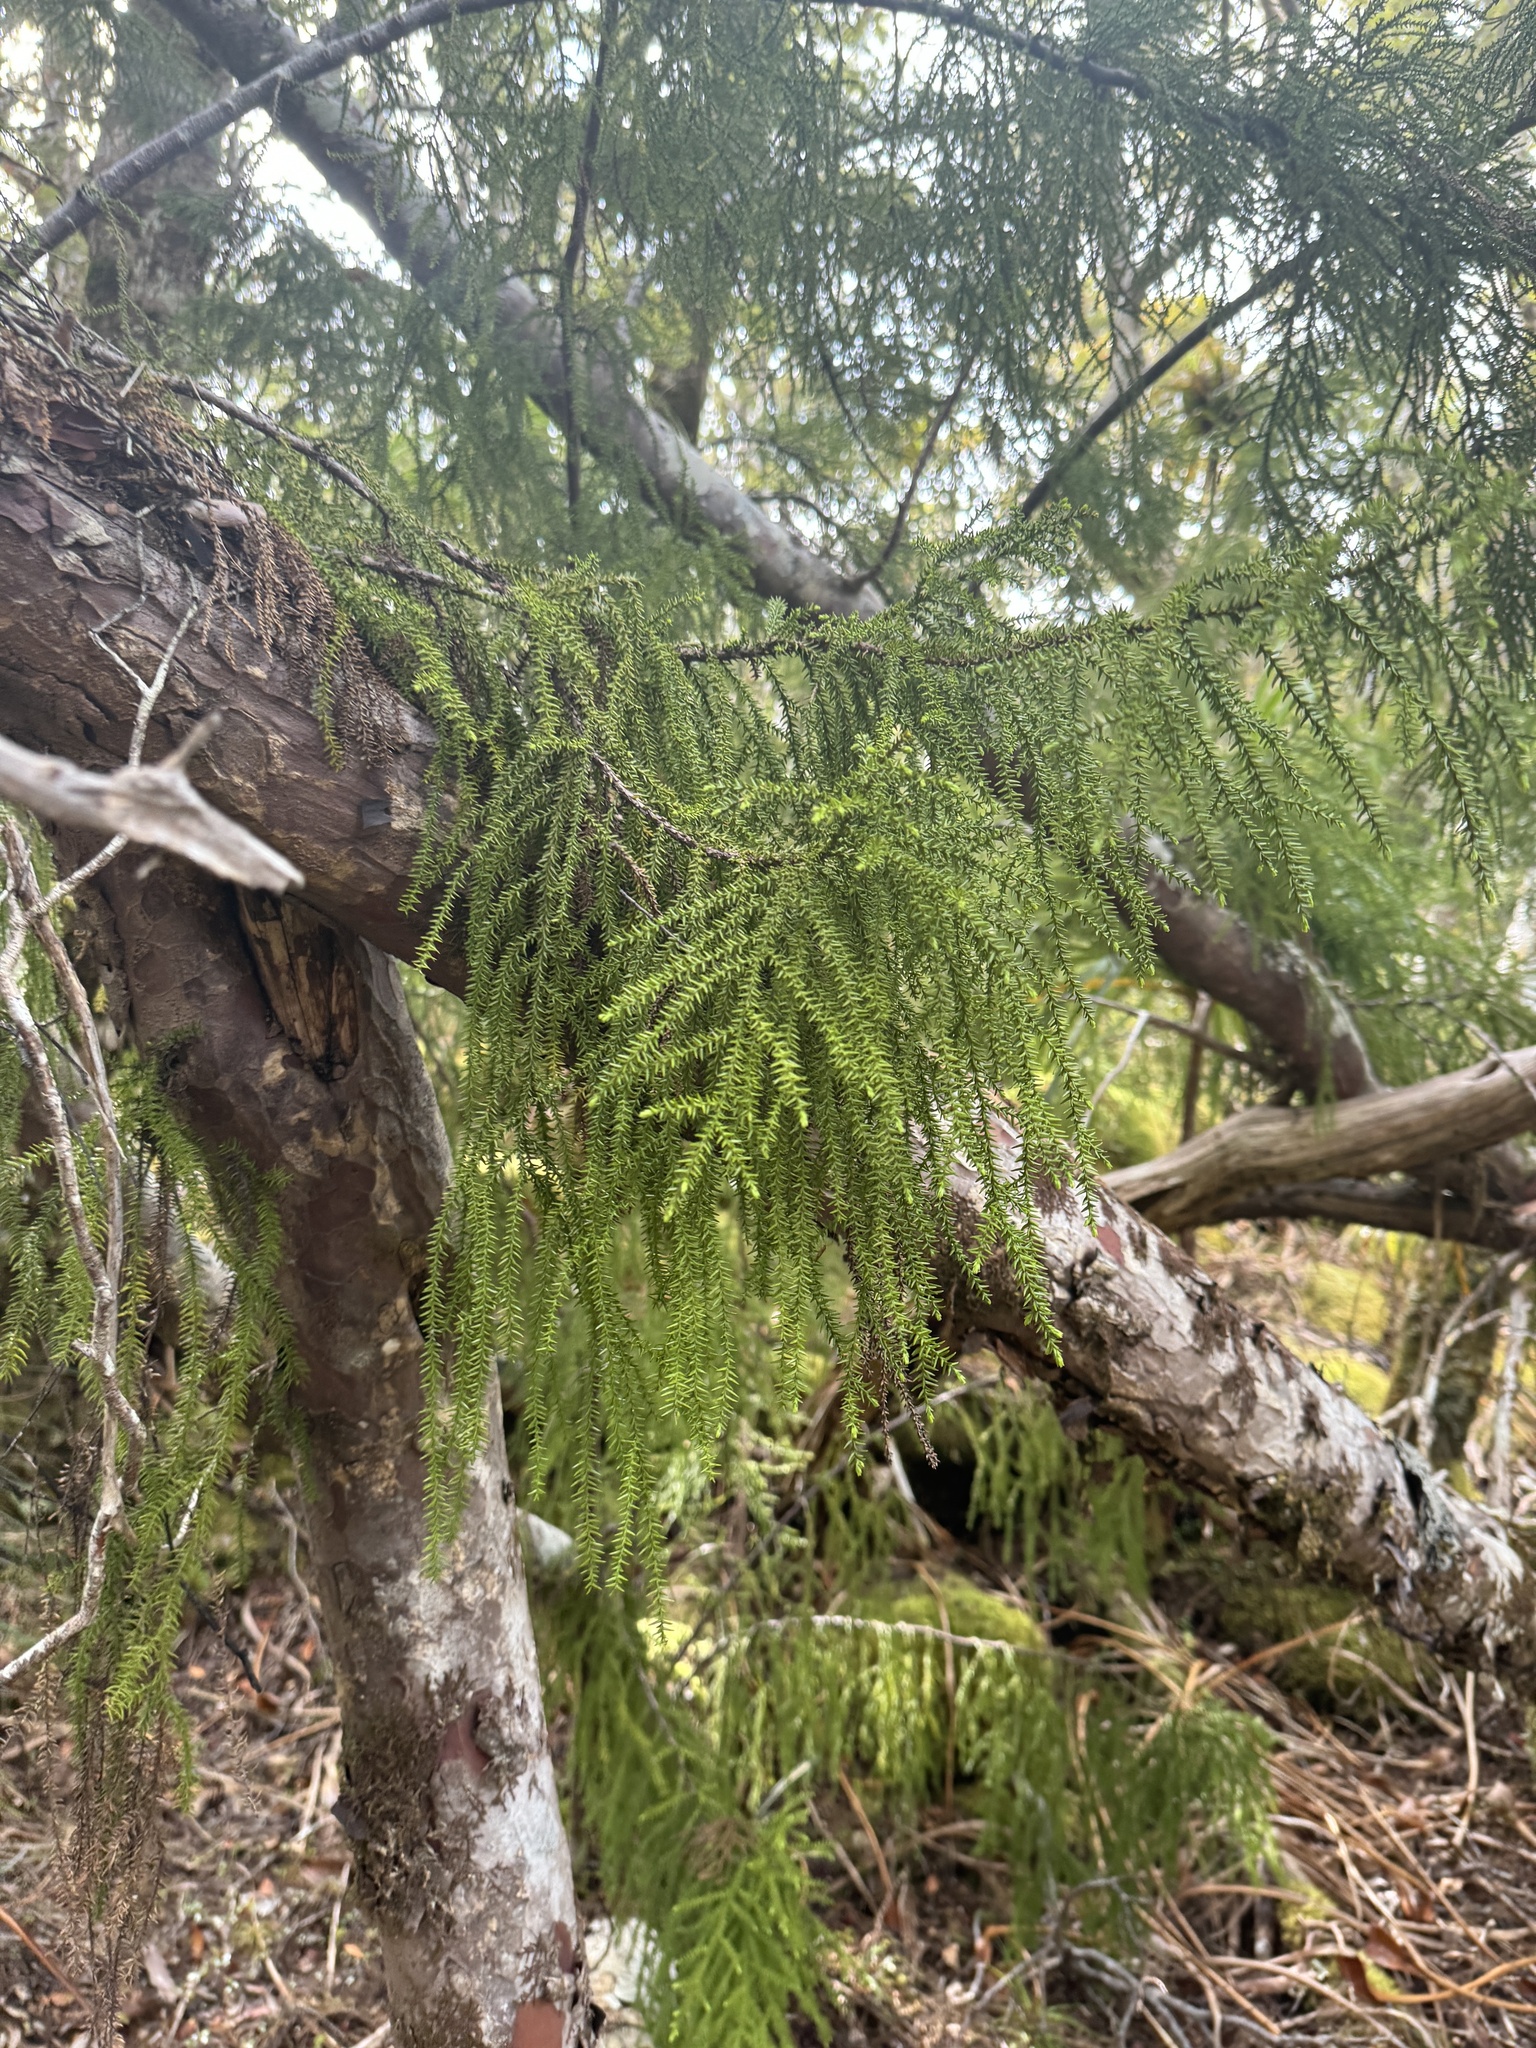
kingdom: Plantae
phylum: Tracheophyta
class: Pinopsida
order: Pinales
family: Podocarpaceae
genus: Lepidothamnus
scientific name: Lepidothamnus intermedius
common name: Yellow silver pine
